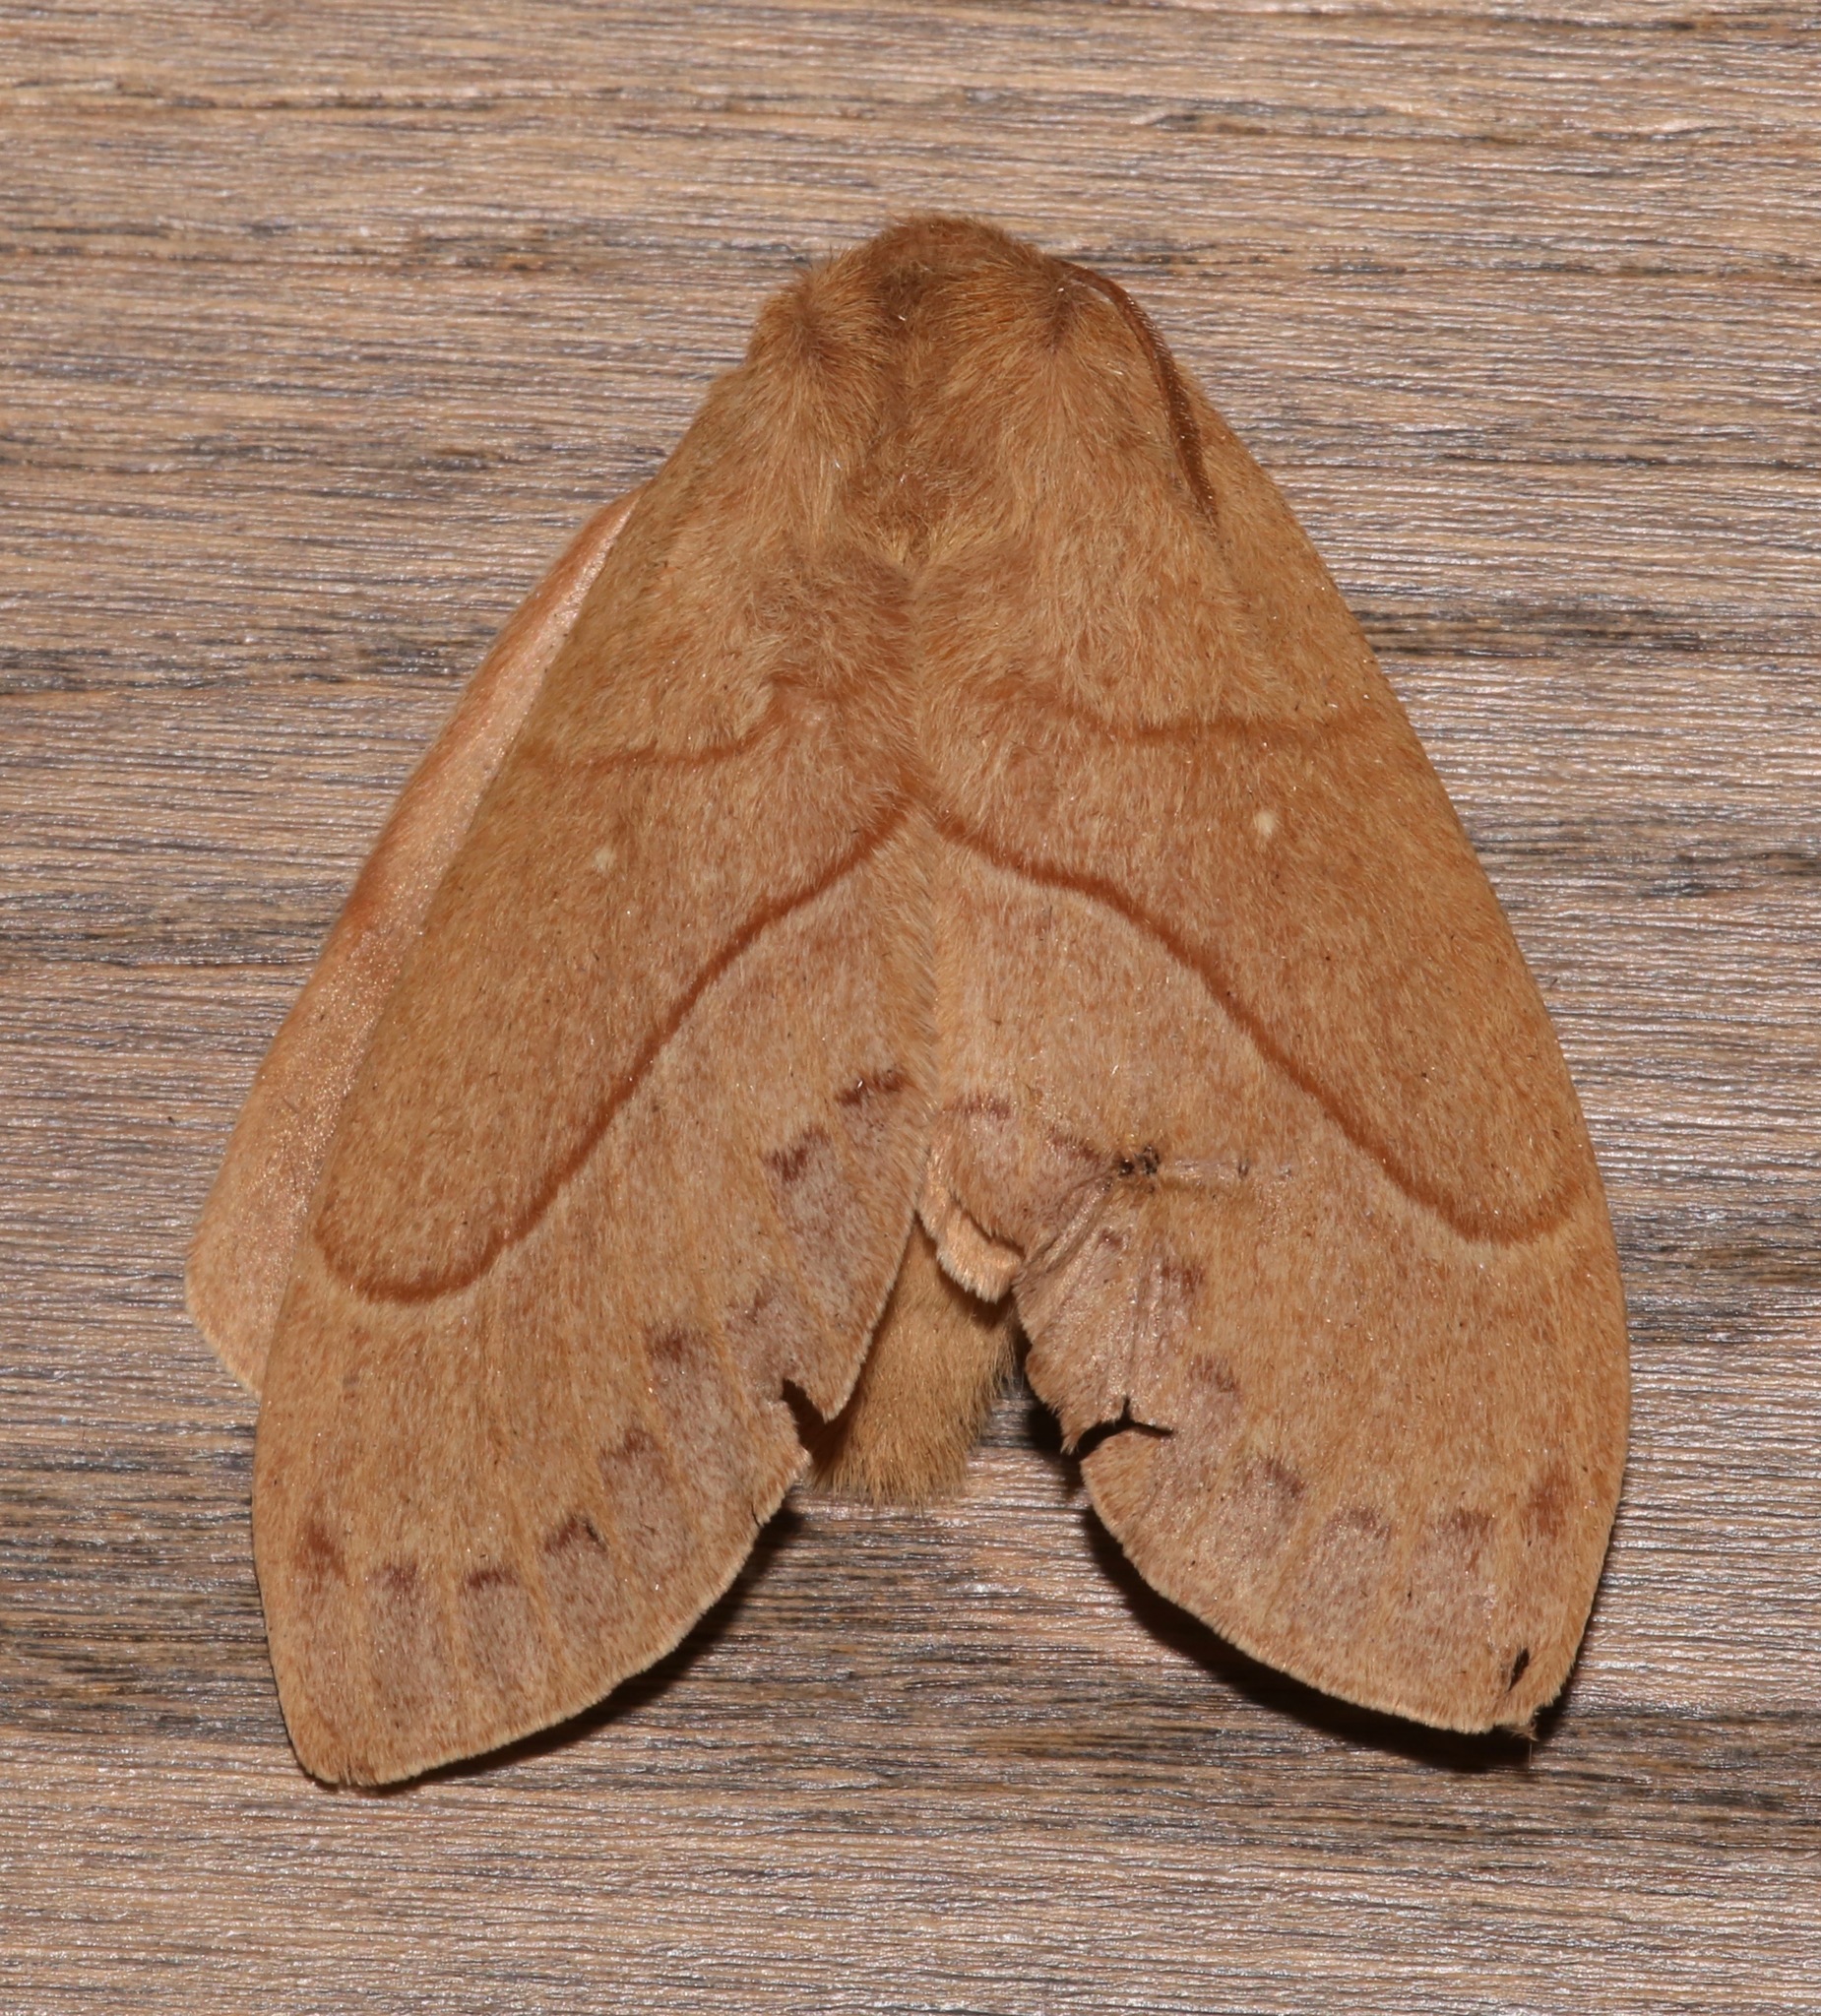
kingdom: Animalia
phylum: Arthropoda
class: Insecta
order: Lepidoptera
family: Lasiocampidae
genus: Dicogaster
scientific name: Dicogaster coronada
